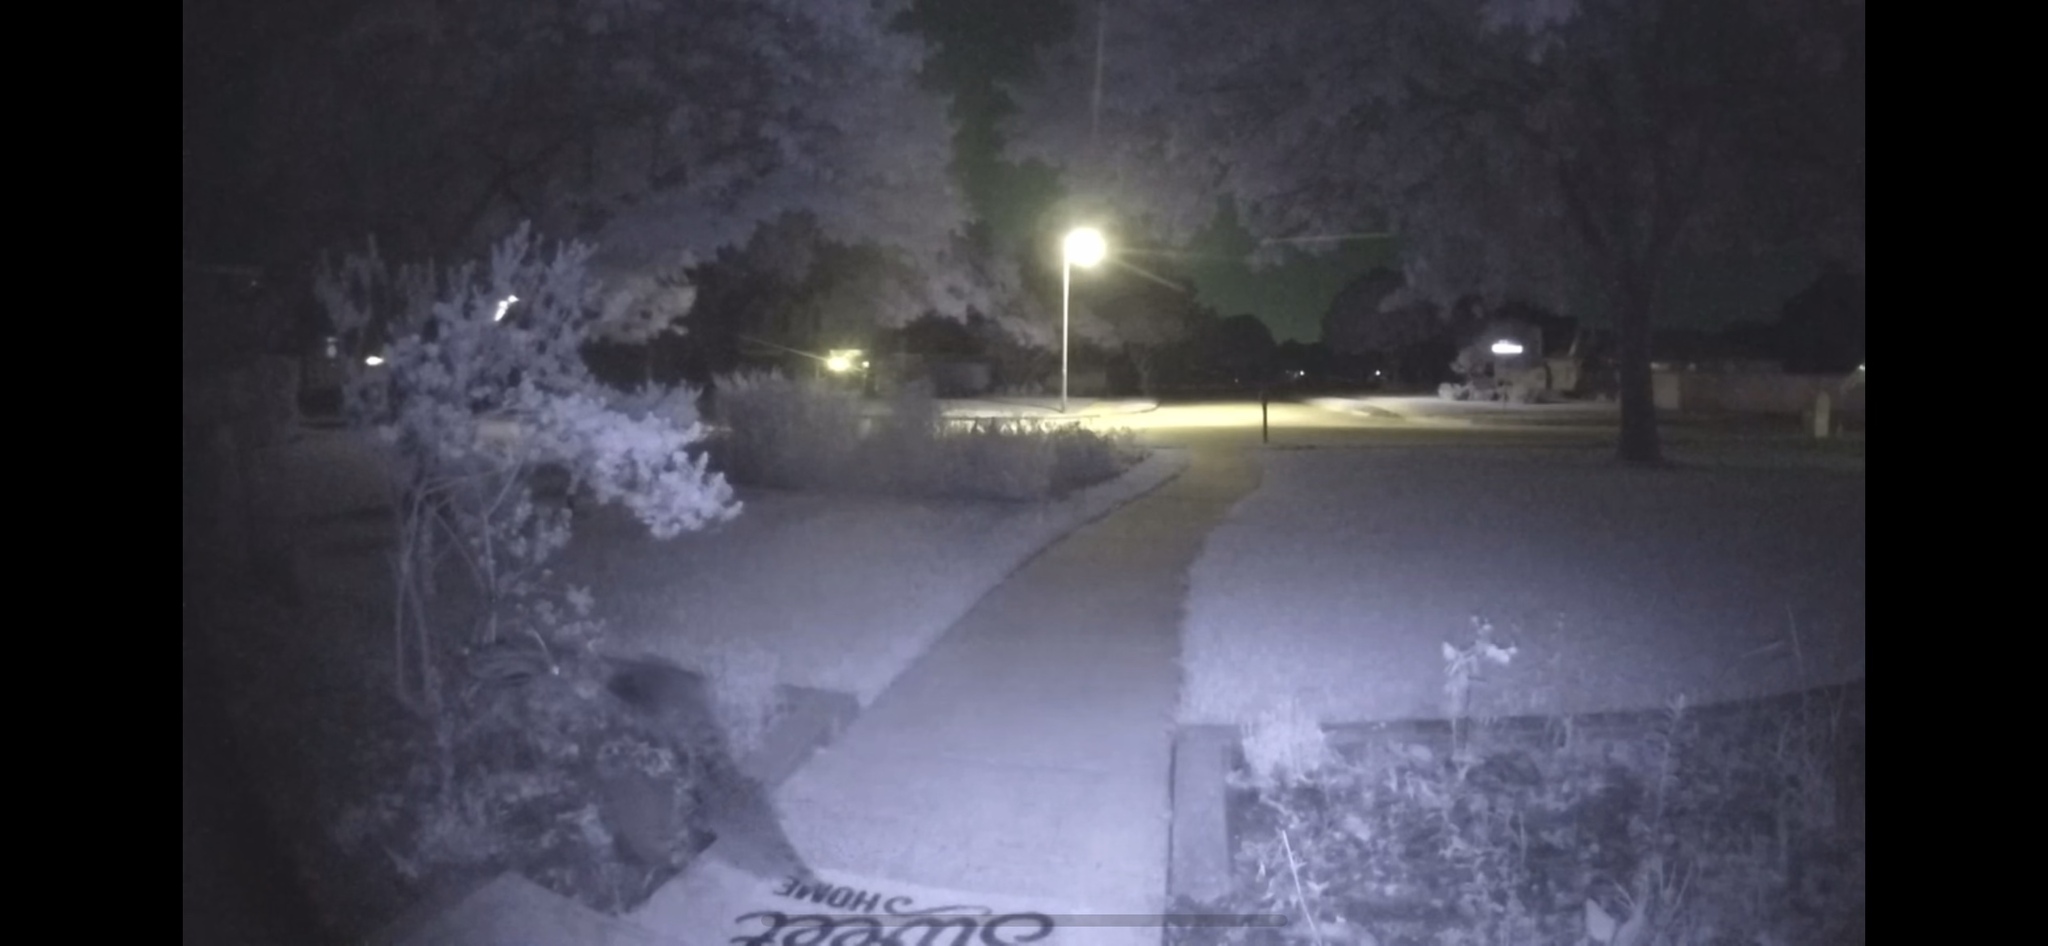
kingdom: Animalia
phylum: Chordata
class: Mammalia
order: Carnivora
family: Procyonidae
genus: Procyon
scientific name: Procyon lotor
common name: Raccoon
